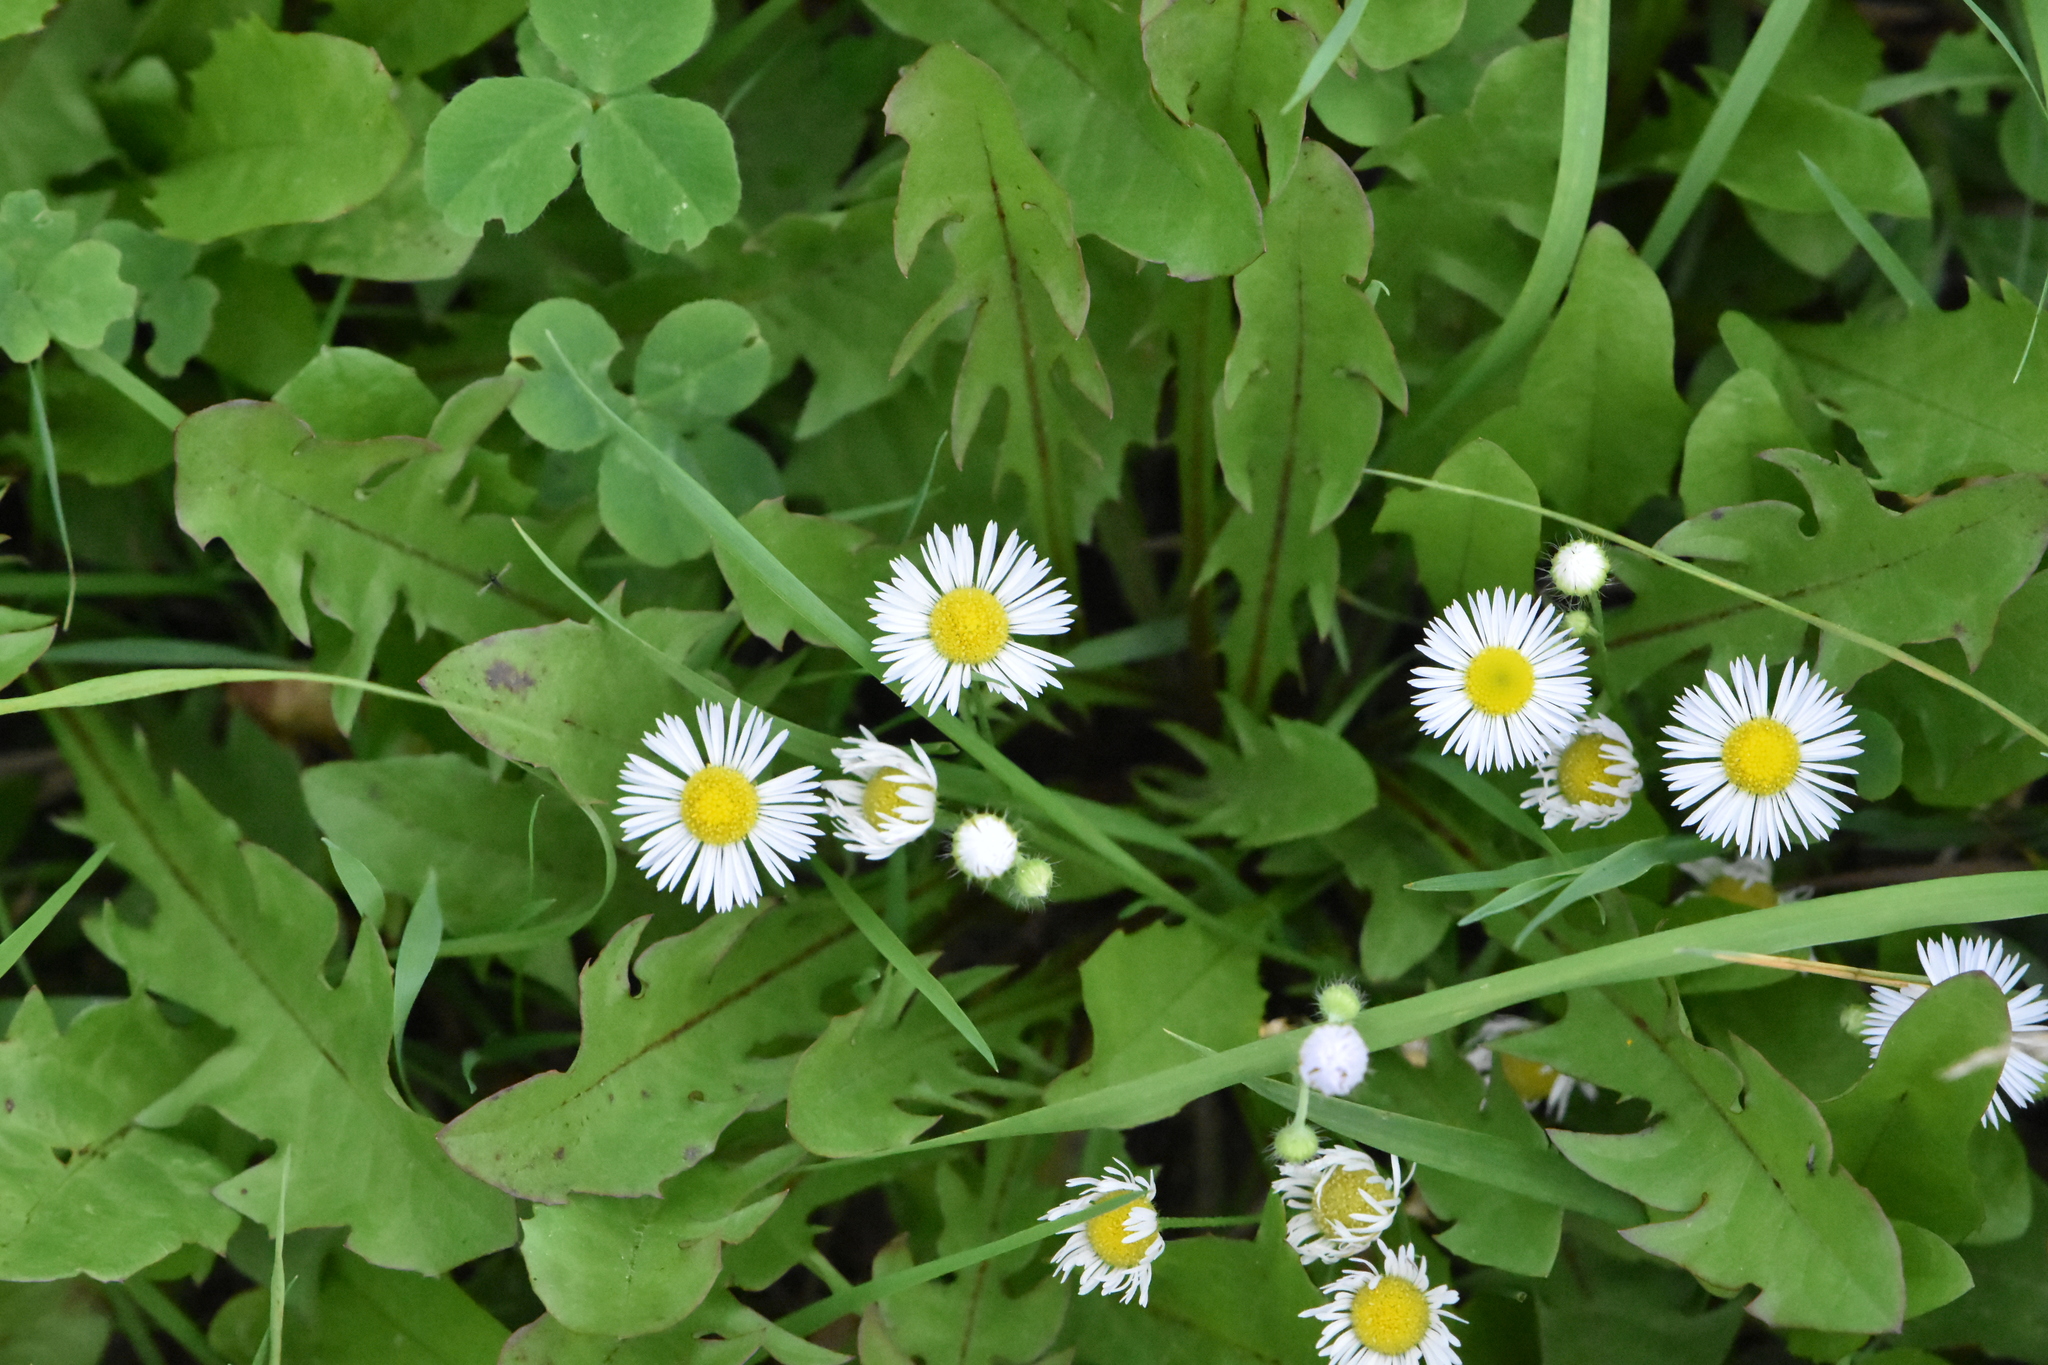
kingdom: Plantae
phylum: Tracheophyta
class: Magnoliopsida
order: Asterales
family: Asteraceae
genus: Erigeron
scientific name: Erigeron annuus
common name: Tall fleabane
